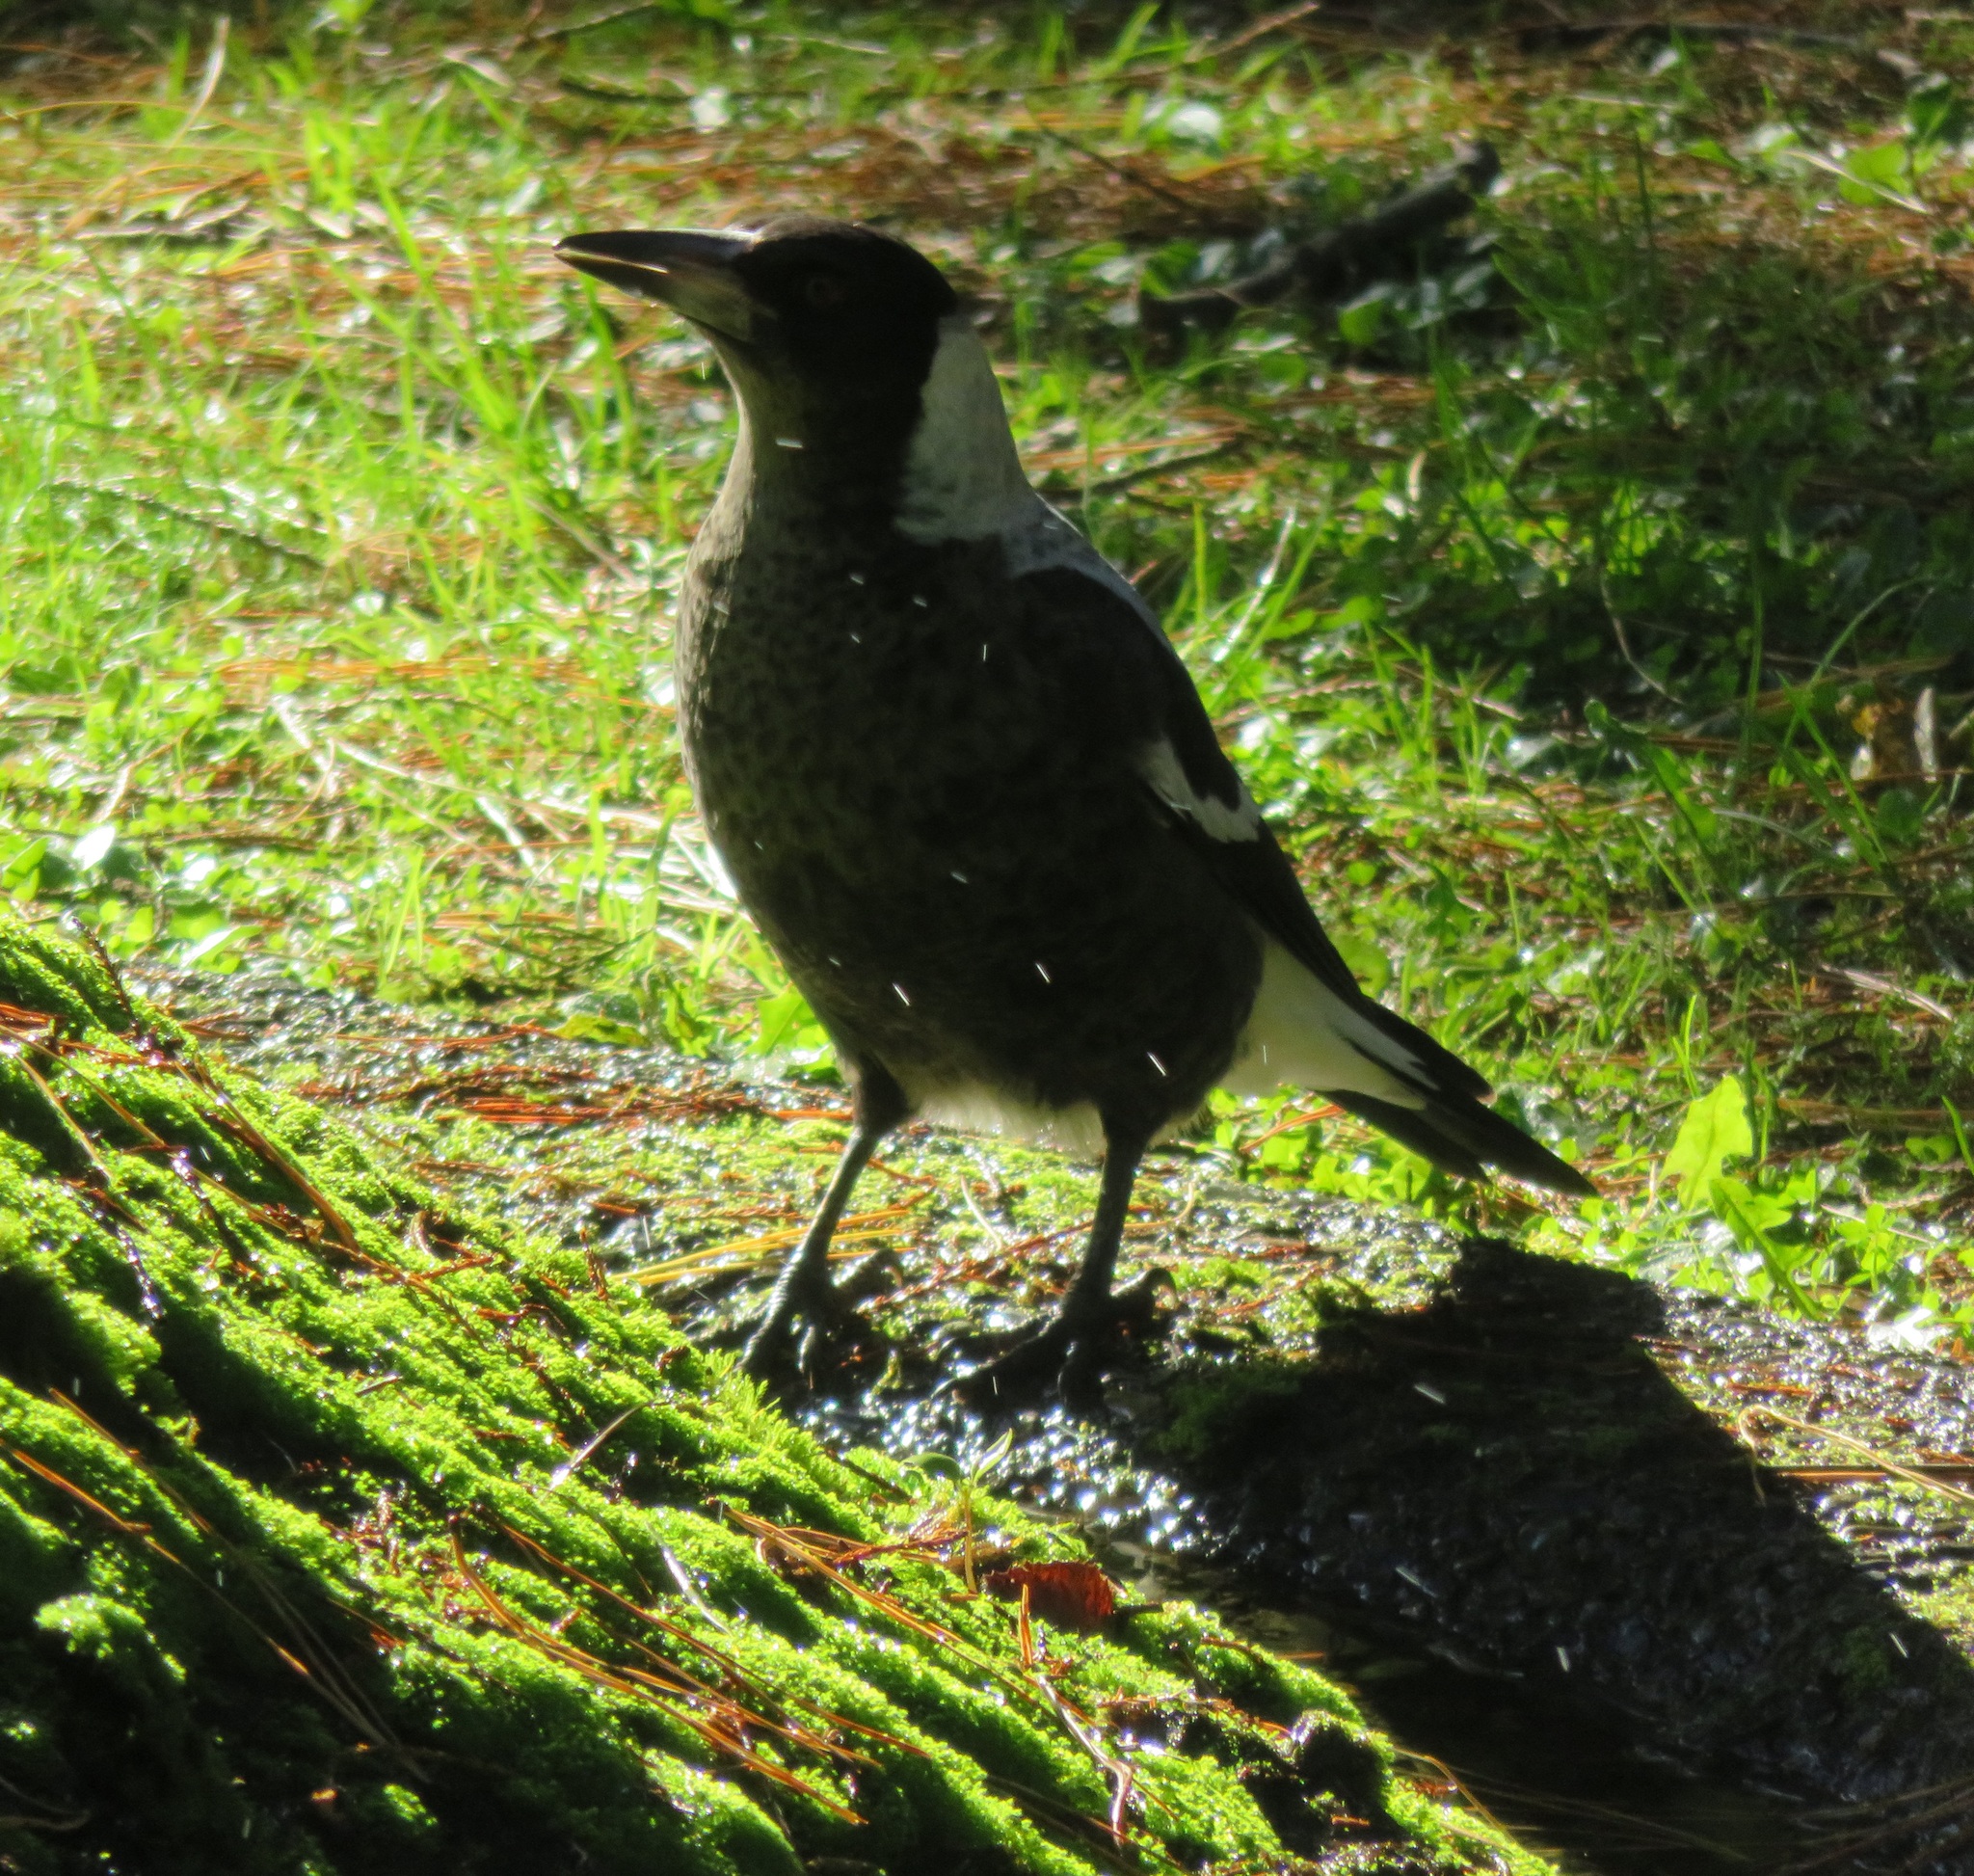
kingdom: Animalia
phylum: Chordata
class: Aves
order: Passeriformes
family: Cracticidae
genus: Gymnorhina
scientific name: Gymnorhina tibicen
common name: Australian magpie
